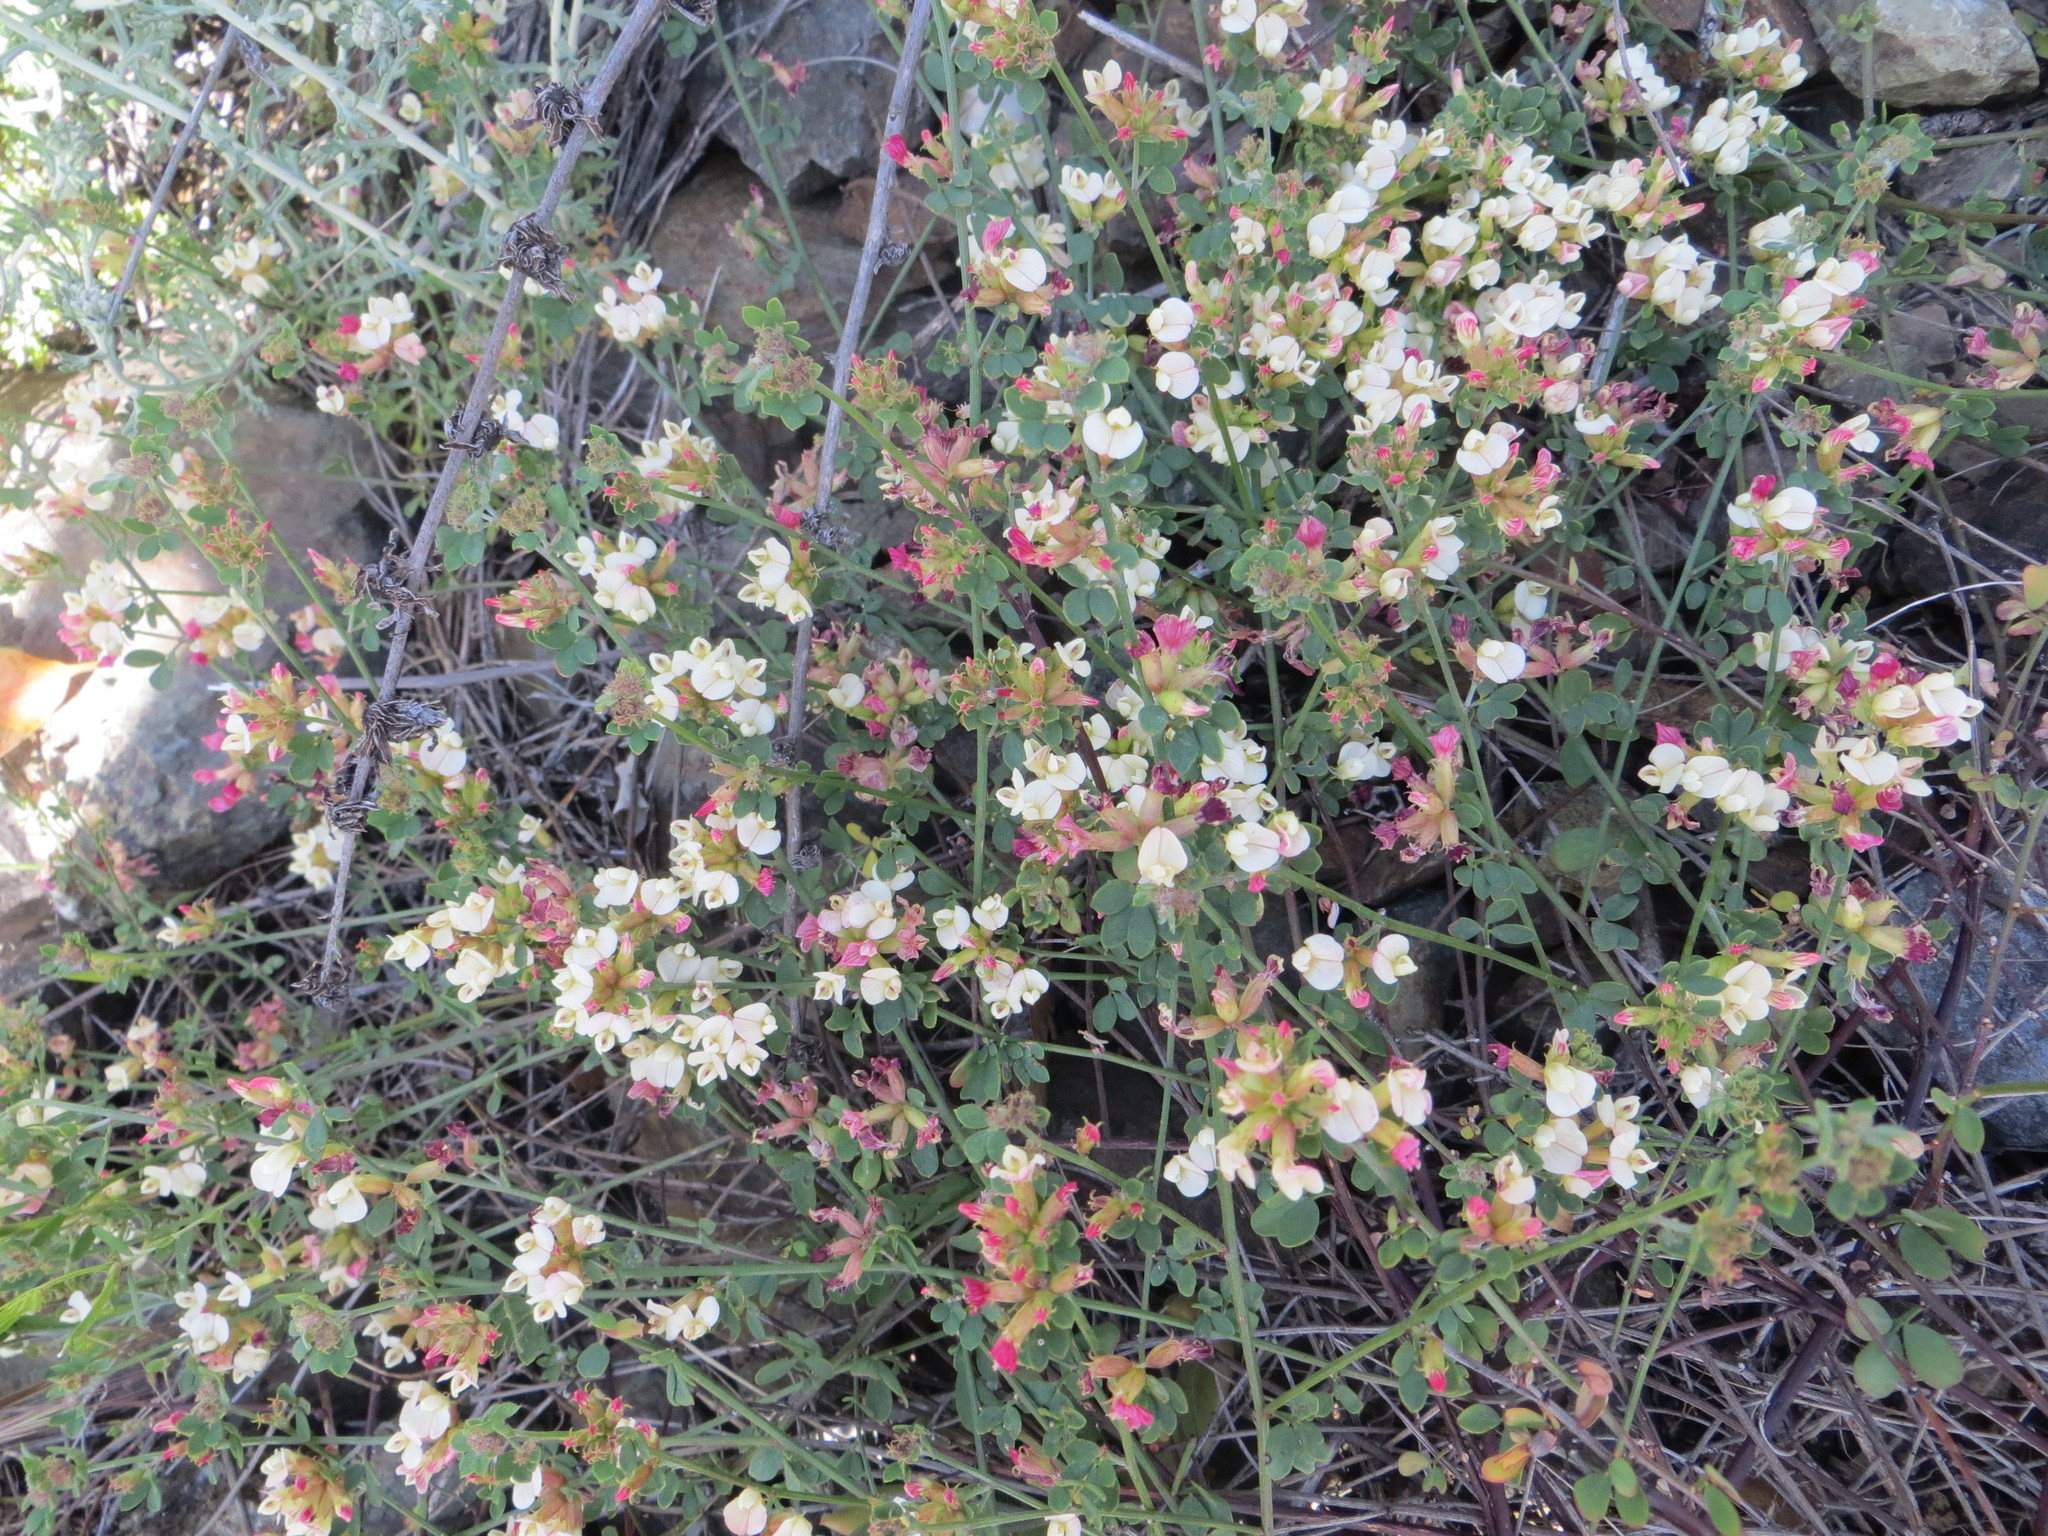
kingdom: Plantae
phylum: Tracheophyta
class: Magnoliopsida
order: Fabales
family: Fabaceae
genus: Acmispon
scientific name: Acmispon cytisoides
